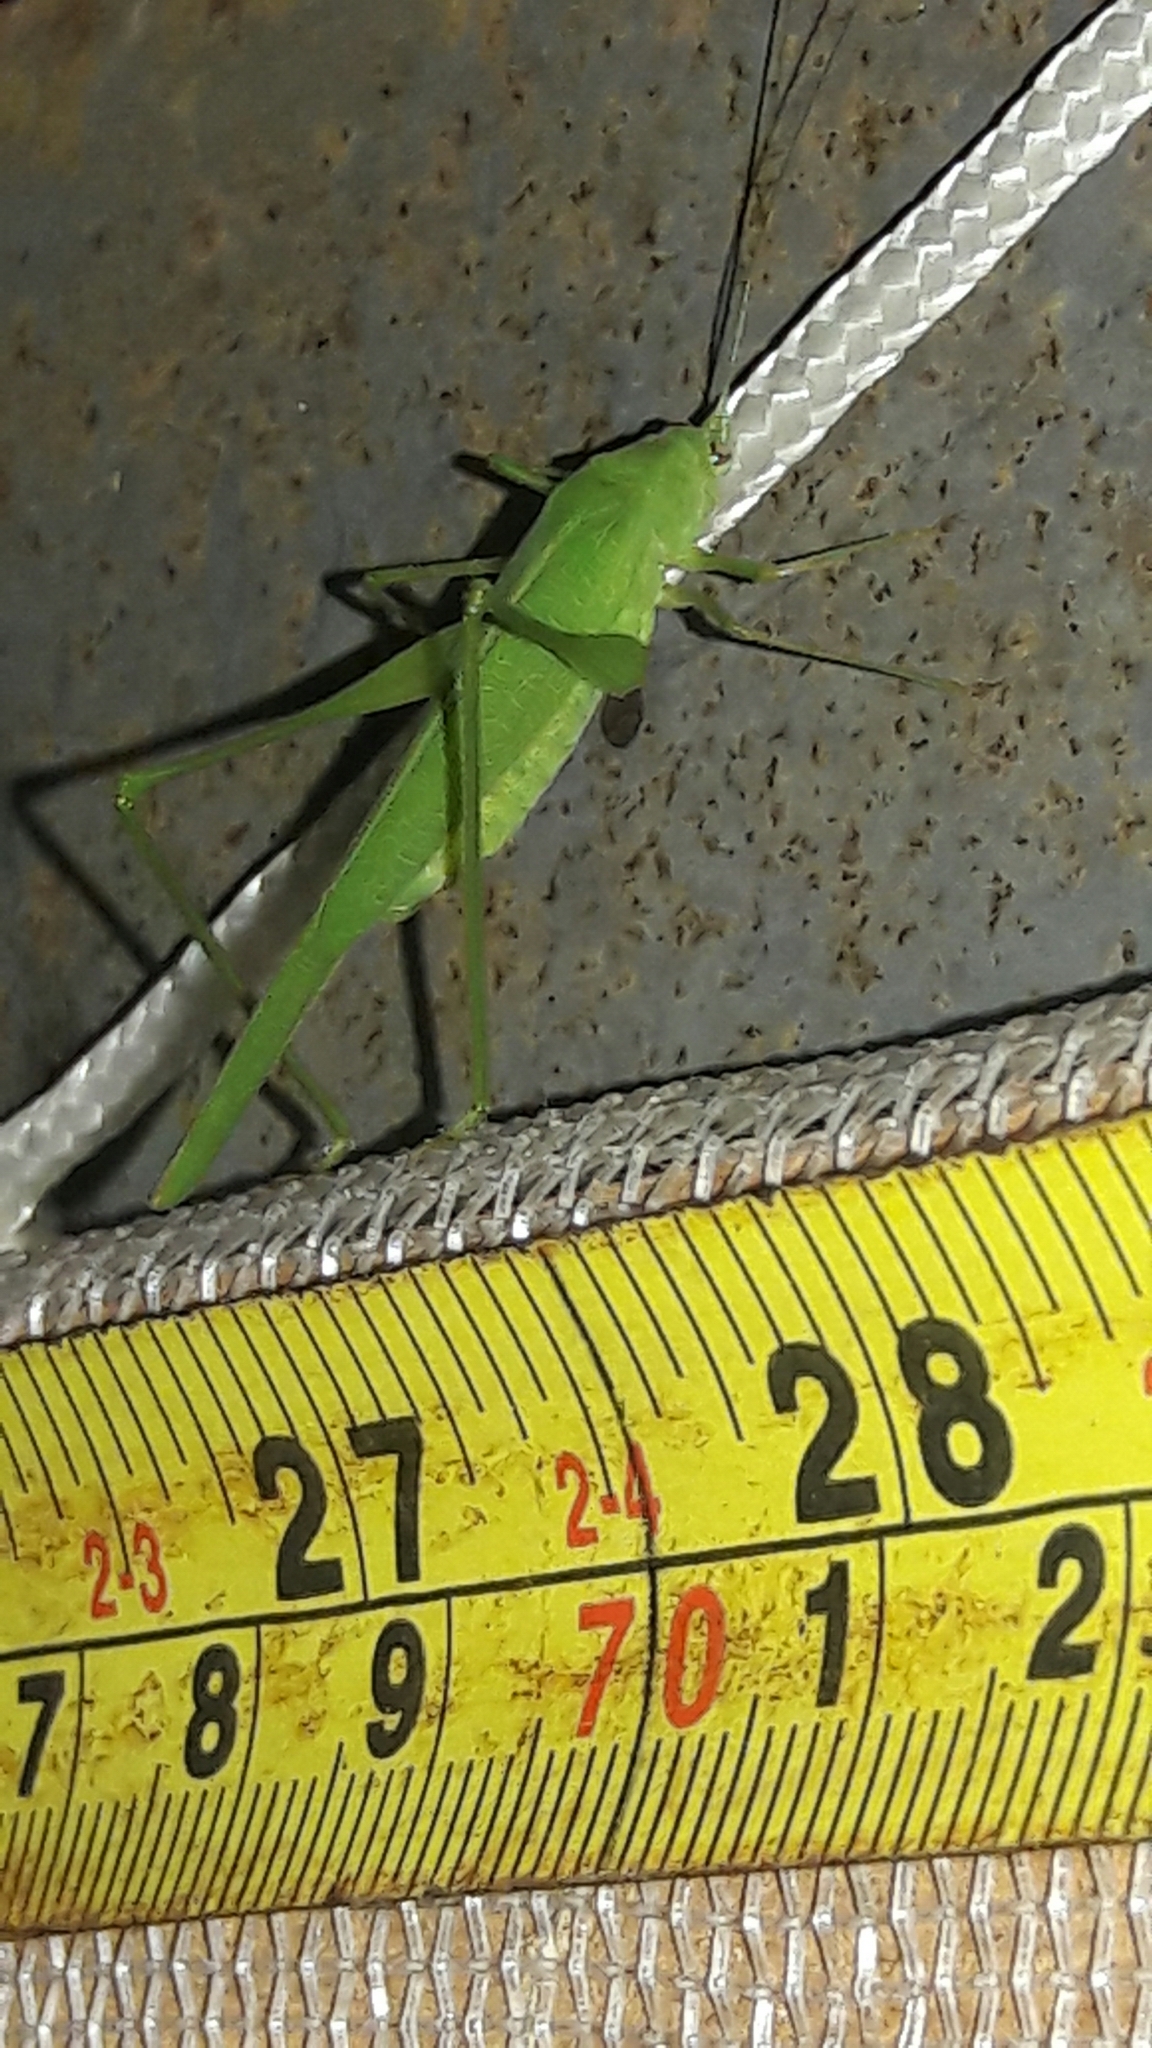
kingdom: Animalia
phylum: Arthropoda
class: Insecta
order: Orthoptera
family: Tettigoniidae
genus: Phaneroptera
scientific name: Phaneroptera quinquesignata
